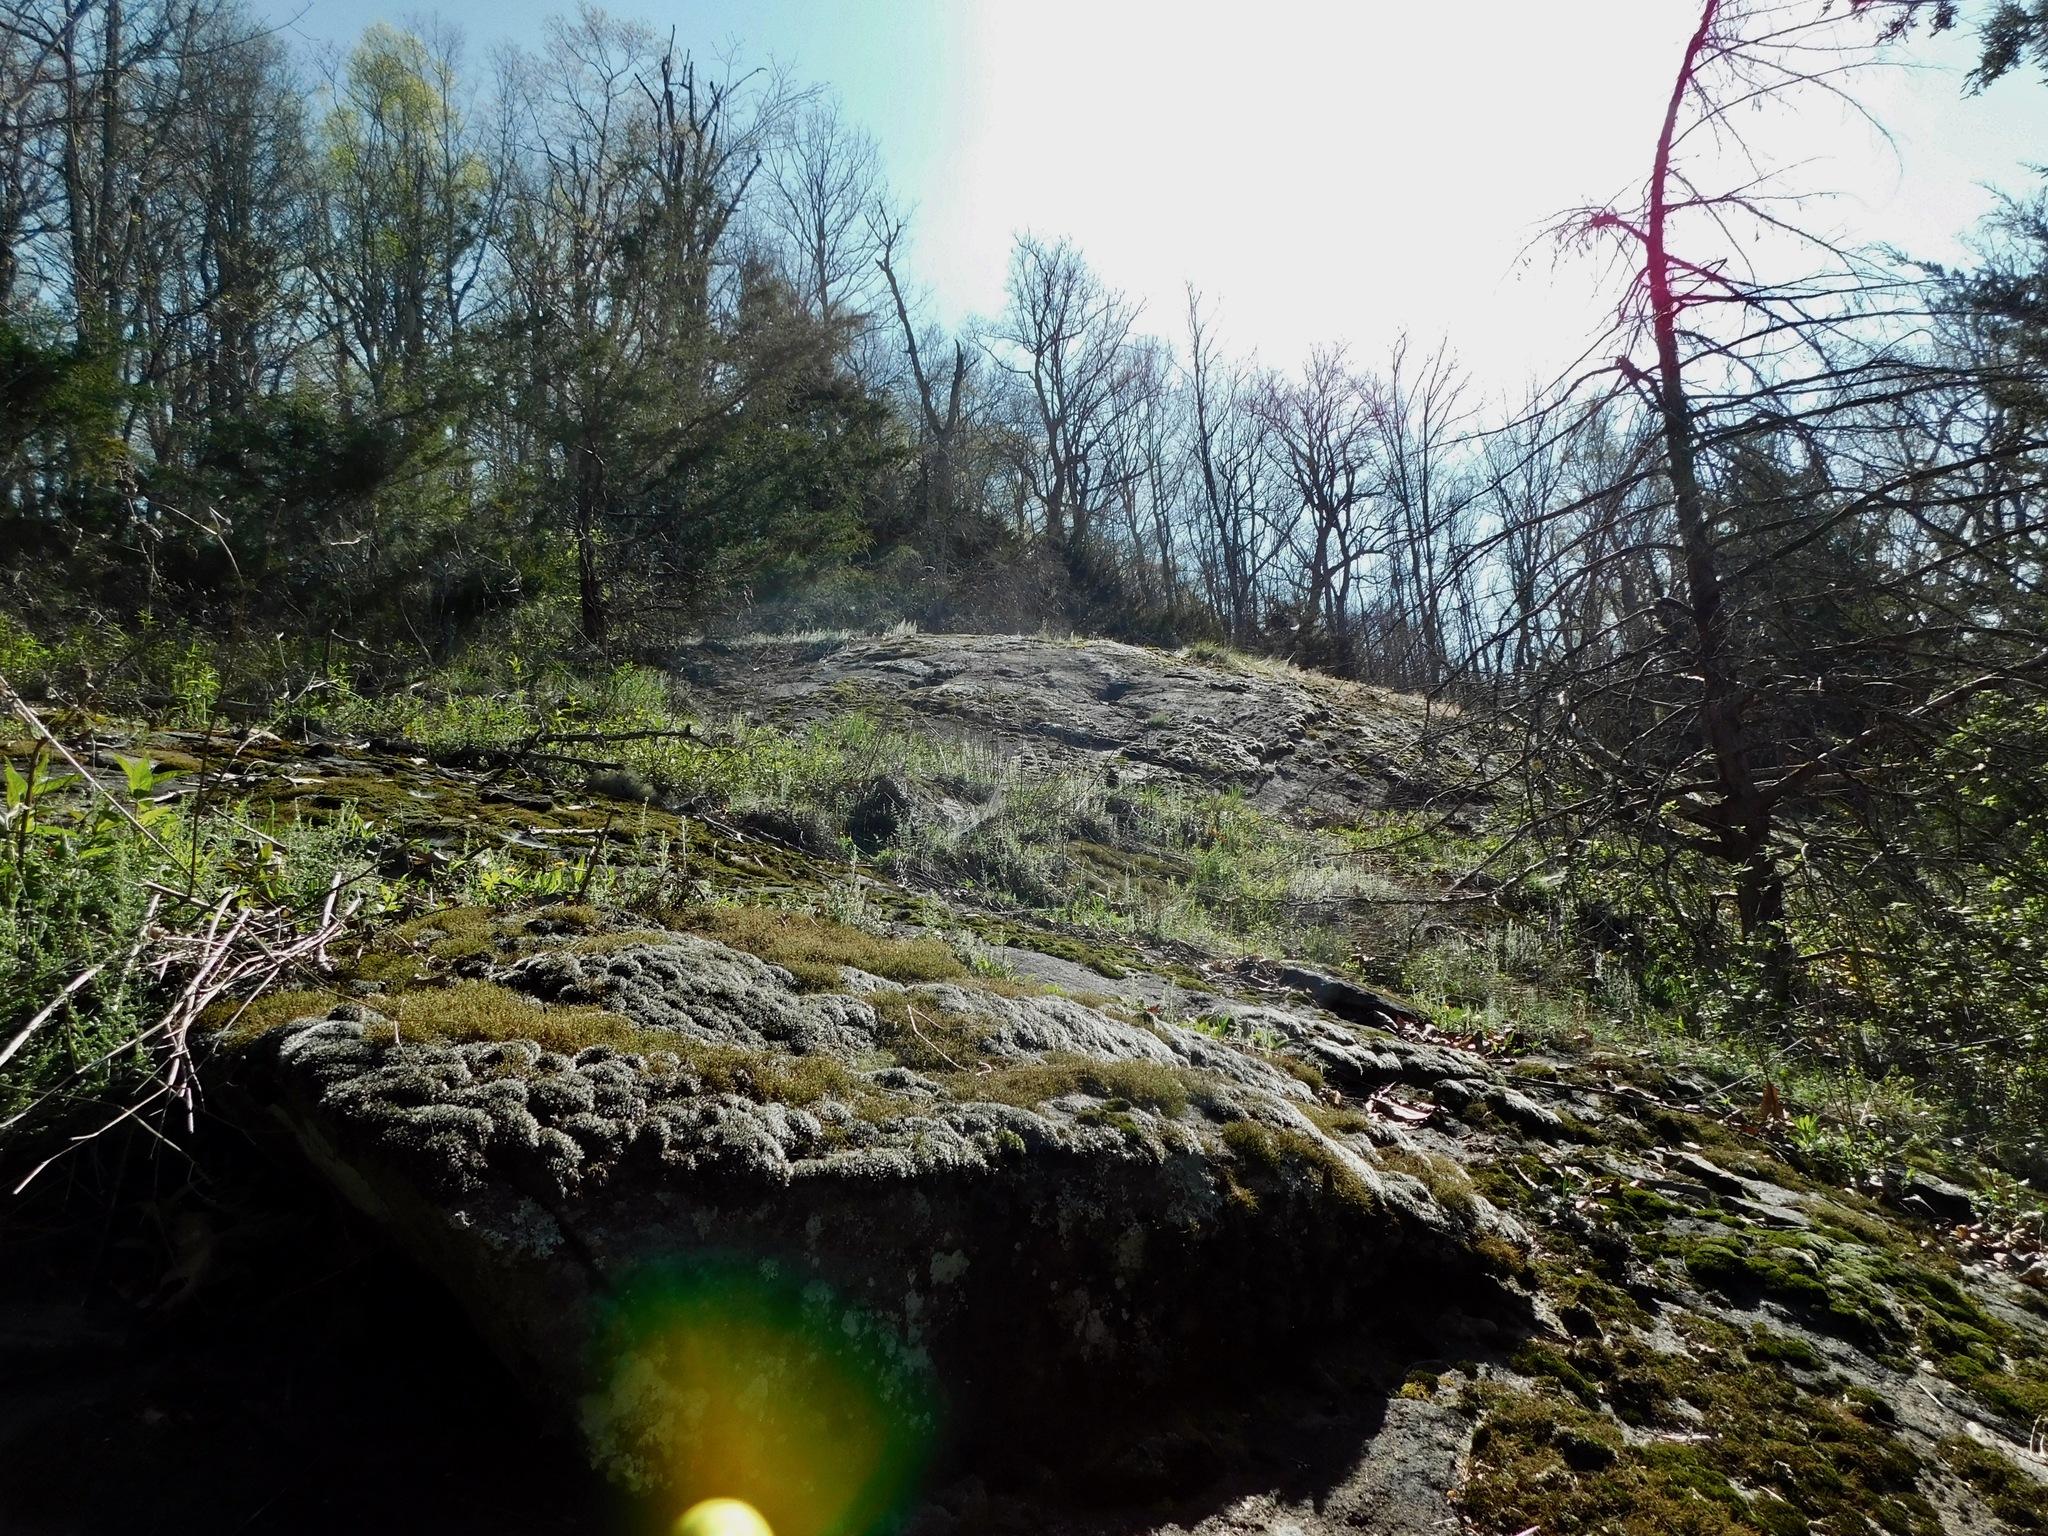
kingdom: Plantae
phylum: Bryophyta
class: Bryopsida
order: Grimmiales
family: Grimmiaceae
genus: Grimmia
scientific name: Grimmia pulvinata
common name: Grey-cushioned grimmia
